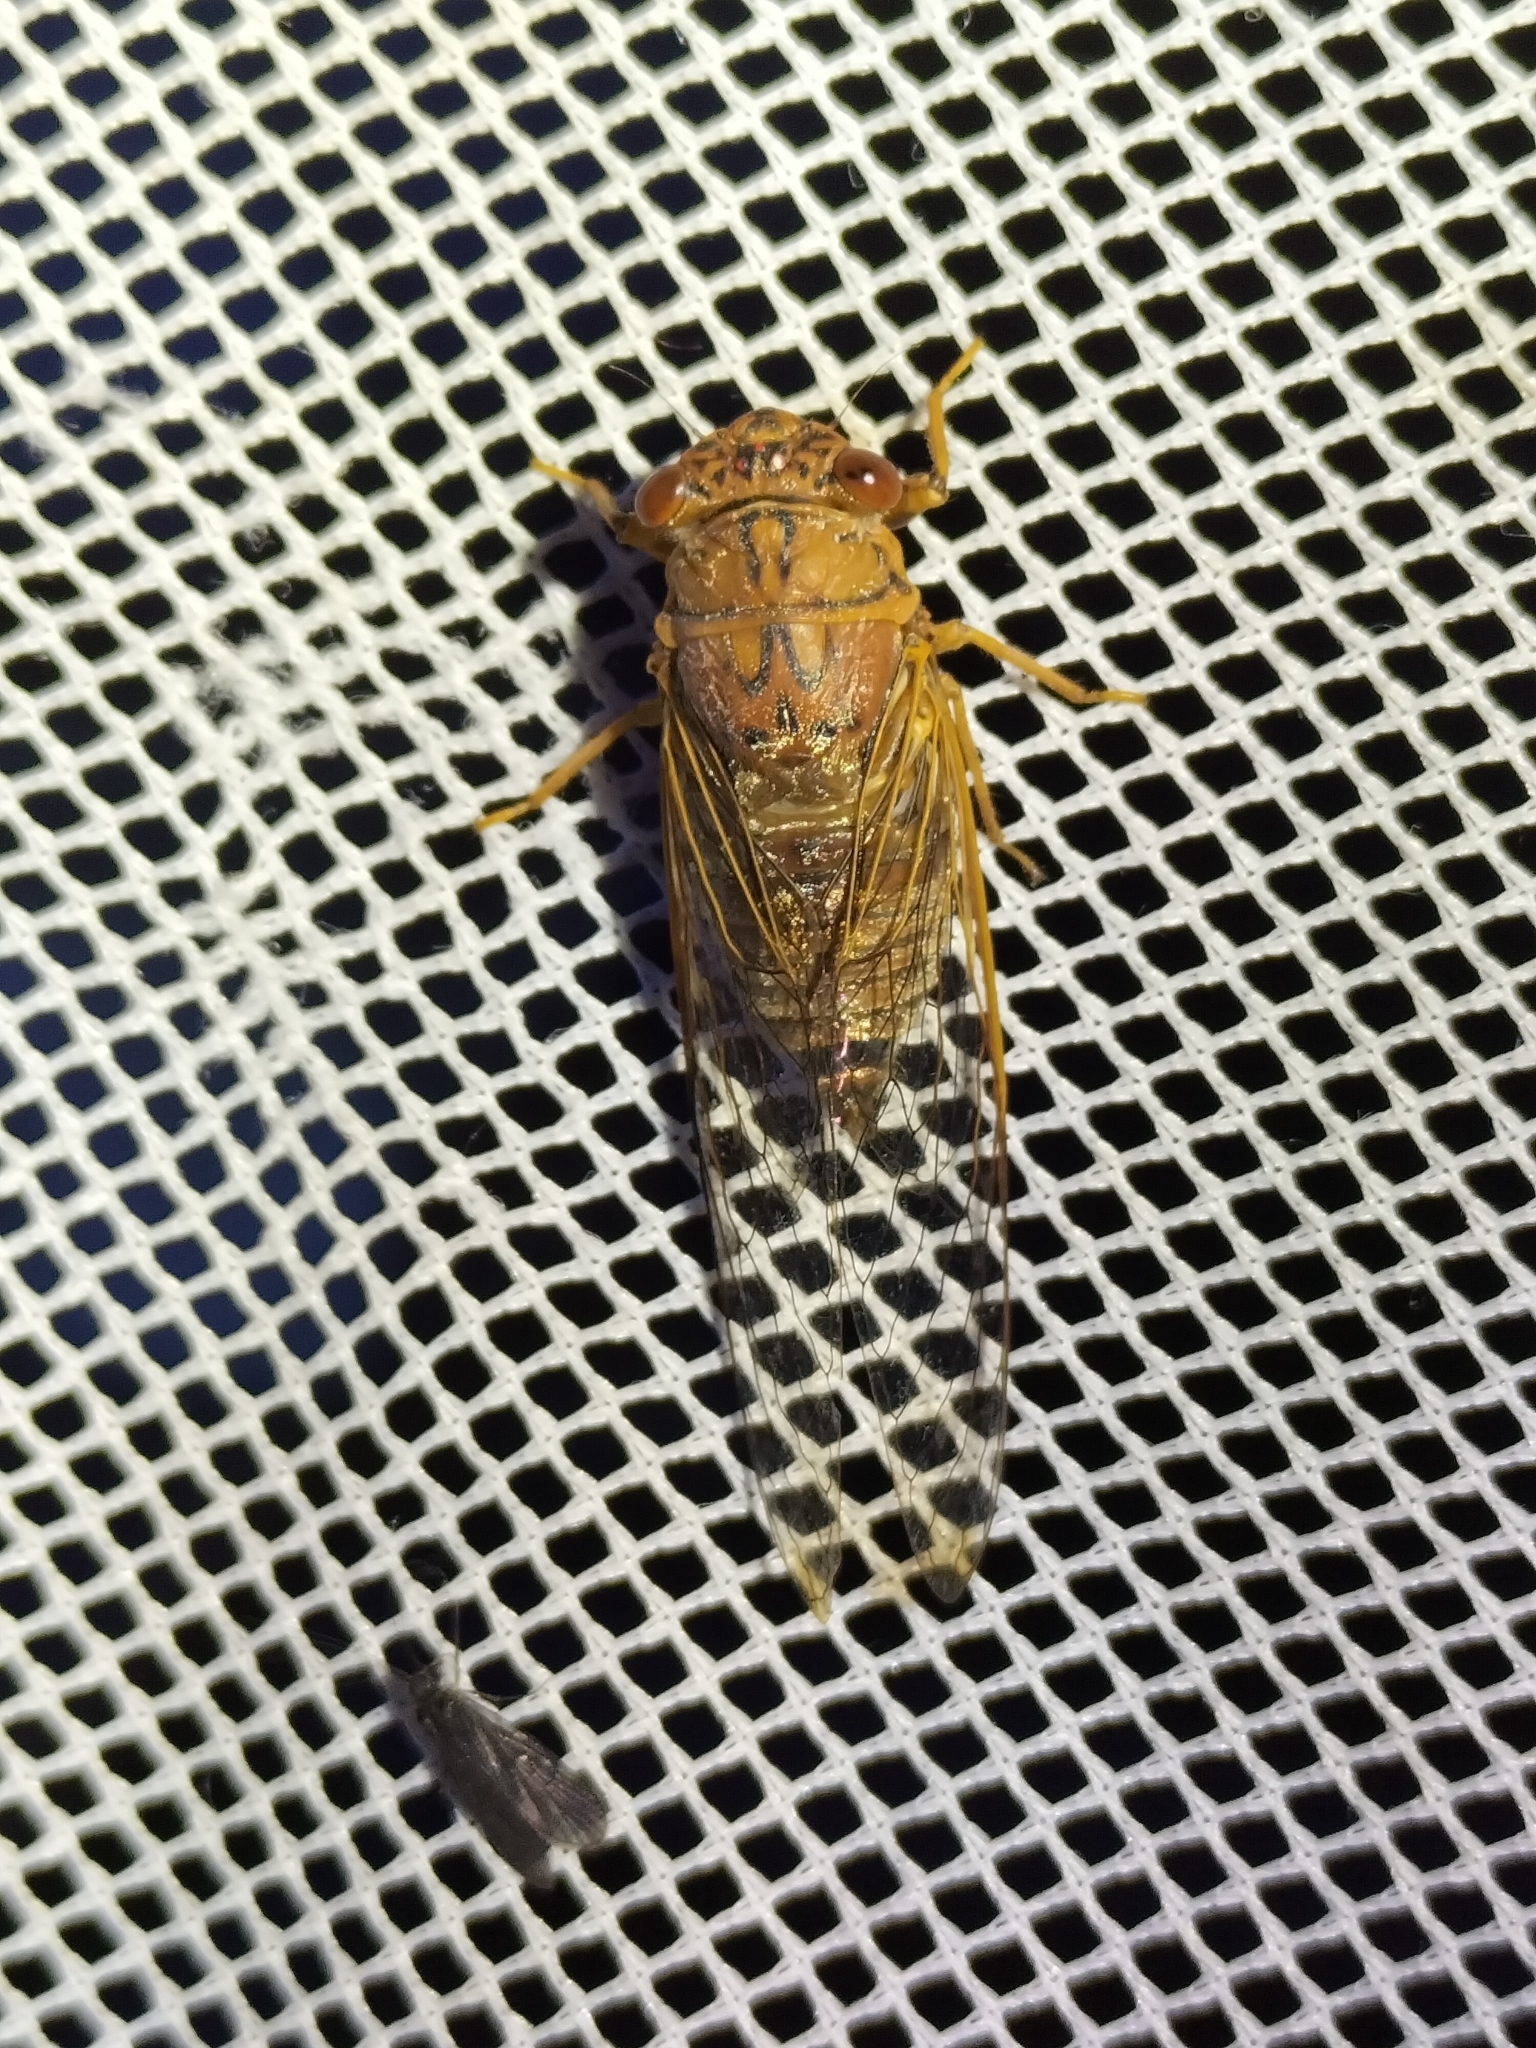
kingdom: Animalia
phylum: Arthropoda
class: Insecta
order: Hemiptera
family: Cicadidae
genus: Tamasa
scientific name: Tamasa doddi
